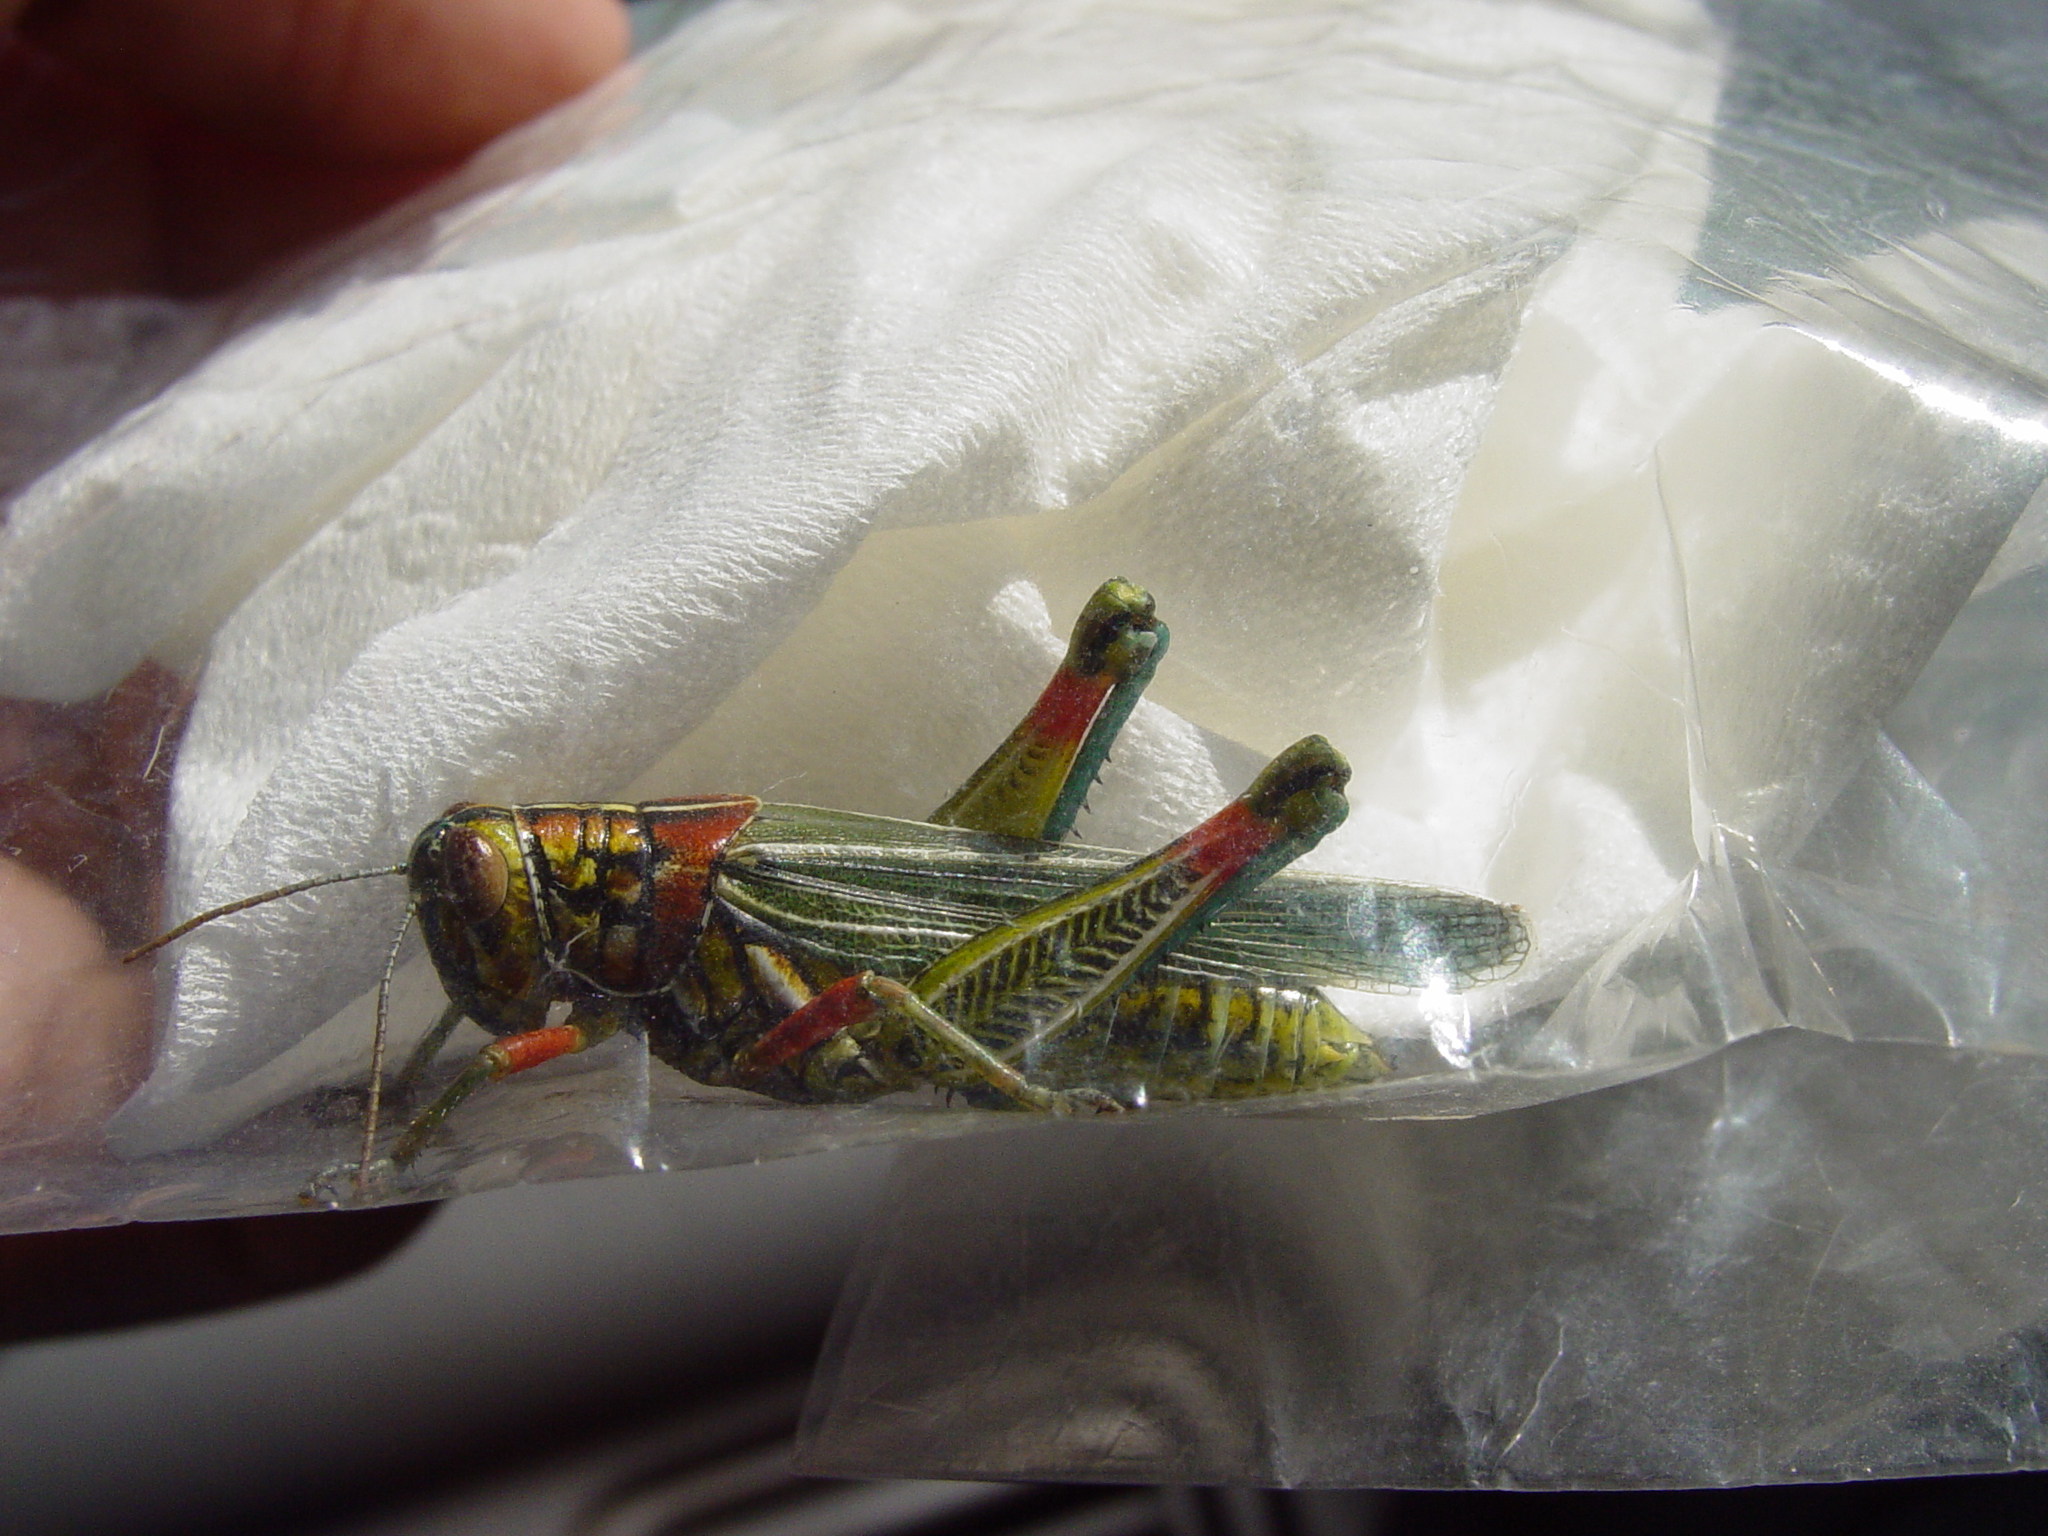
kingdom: Animalia
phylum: Arthropoda
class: Insecta
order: Orthoptera
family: Acrididae
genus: Hesperotettix
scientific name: Hesperotettix viridis
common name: Meadow purple-striped grasshopper
